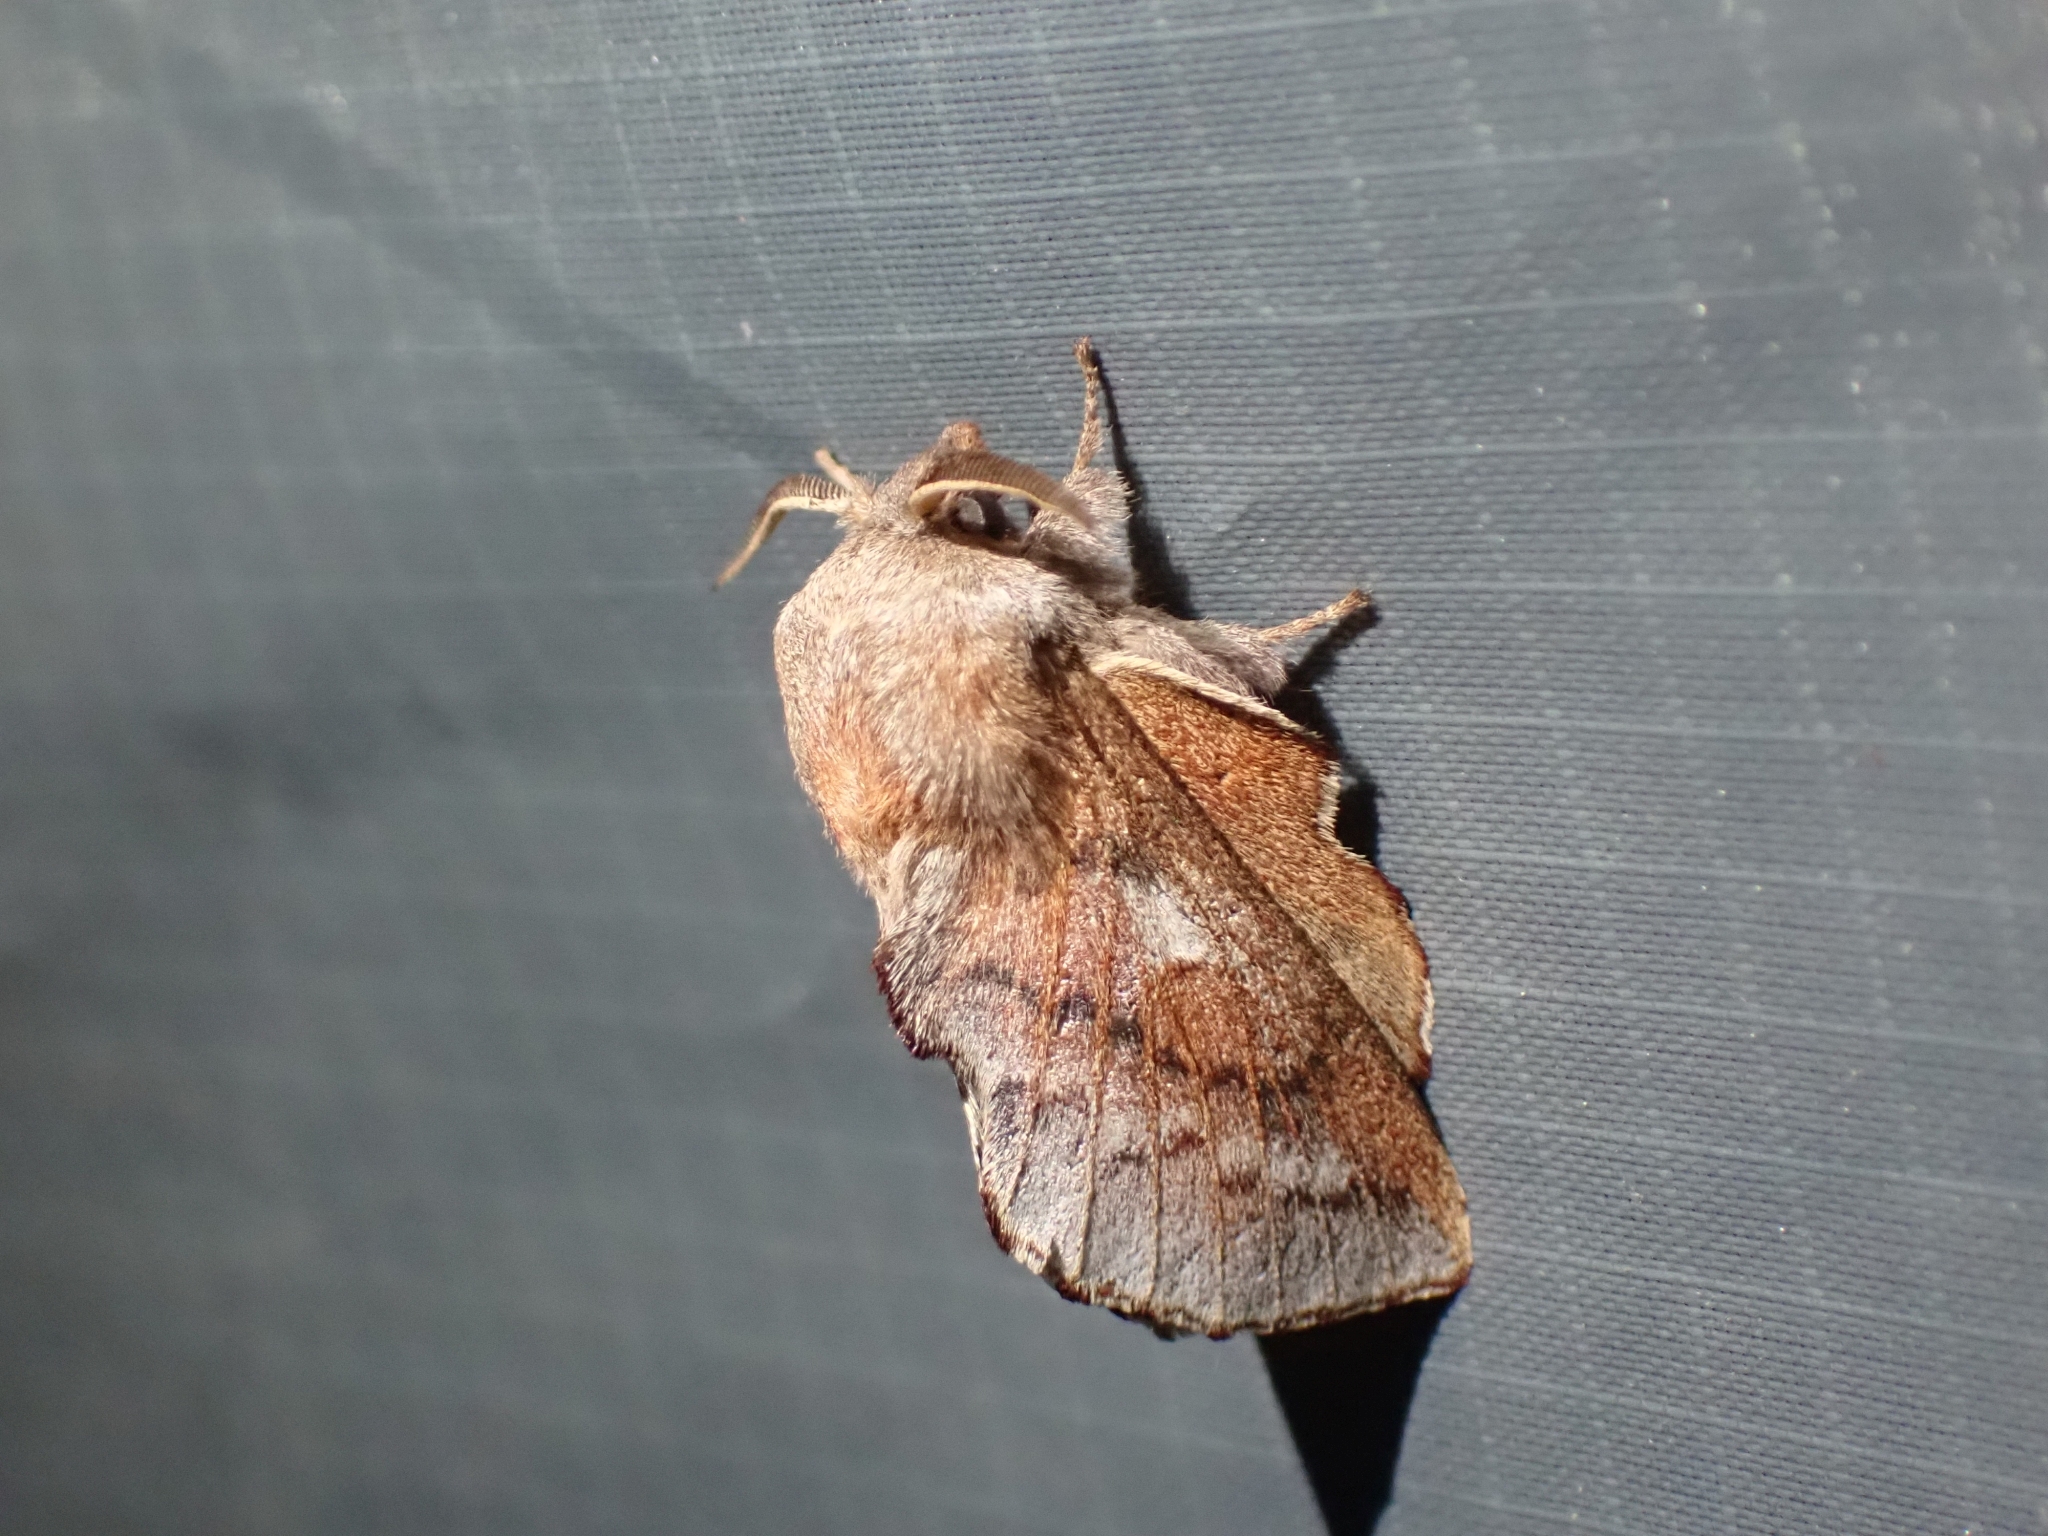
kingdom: Animalia
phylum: Arthropoda
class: Insecta
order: Lepidoptera
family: Lasiocampidae
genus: Phyllodesma
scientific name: Phyllodesma americana
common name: American lappet moth
